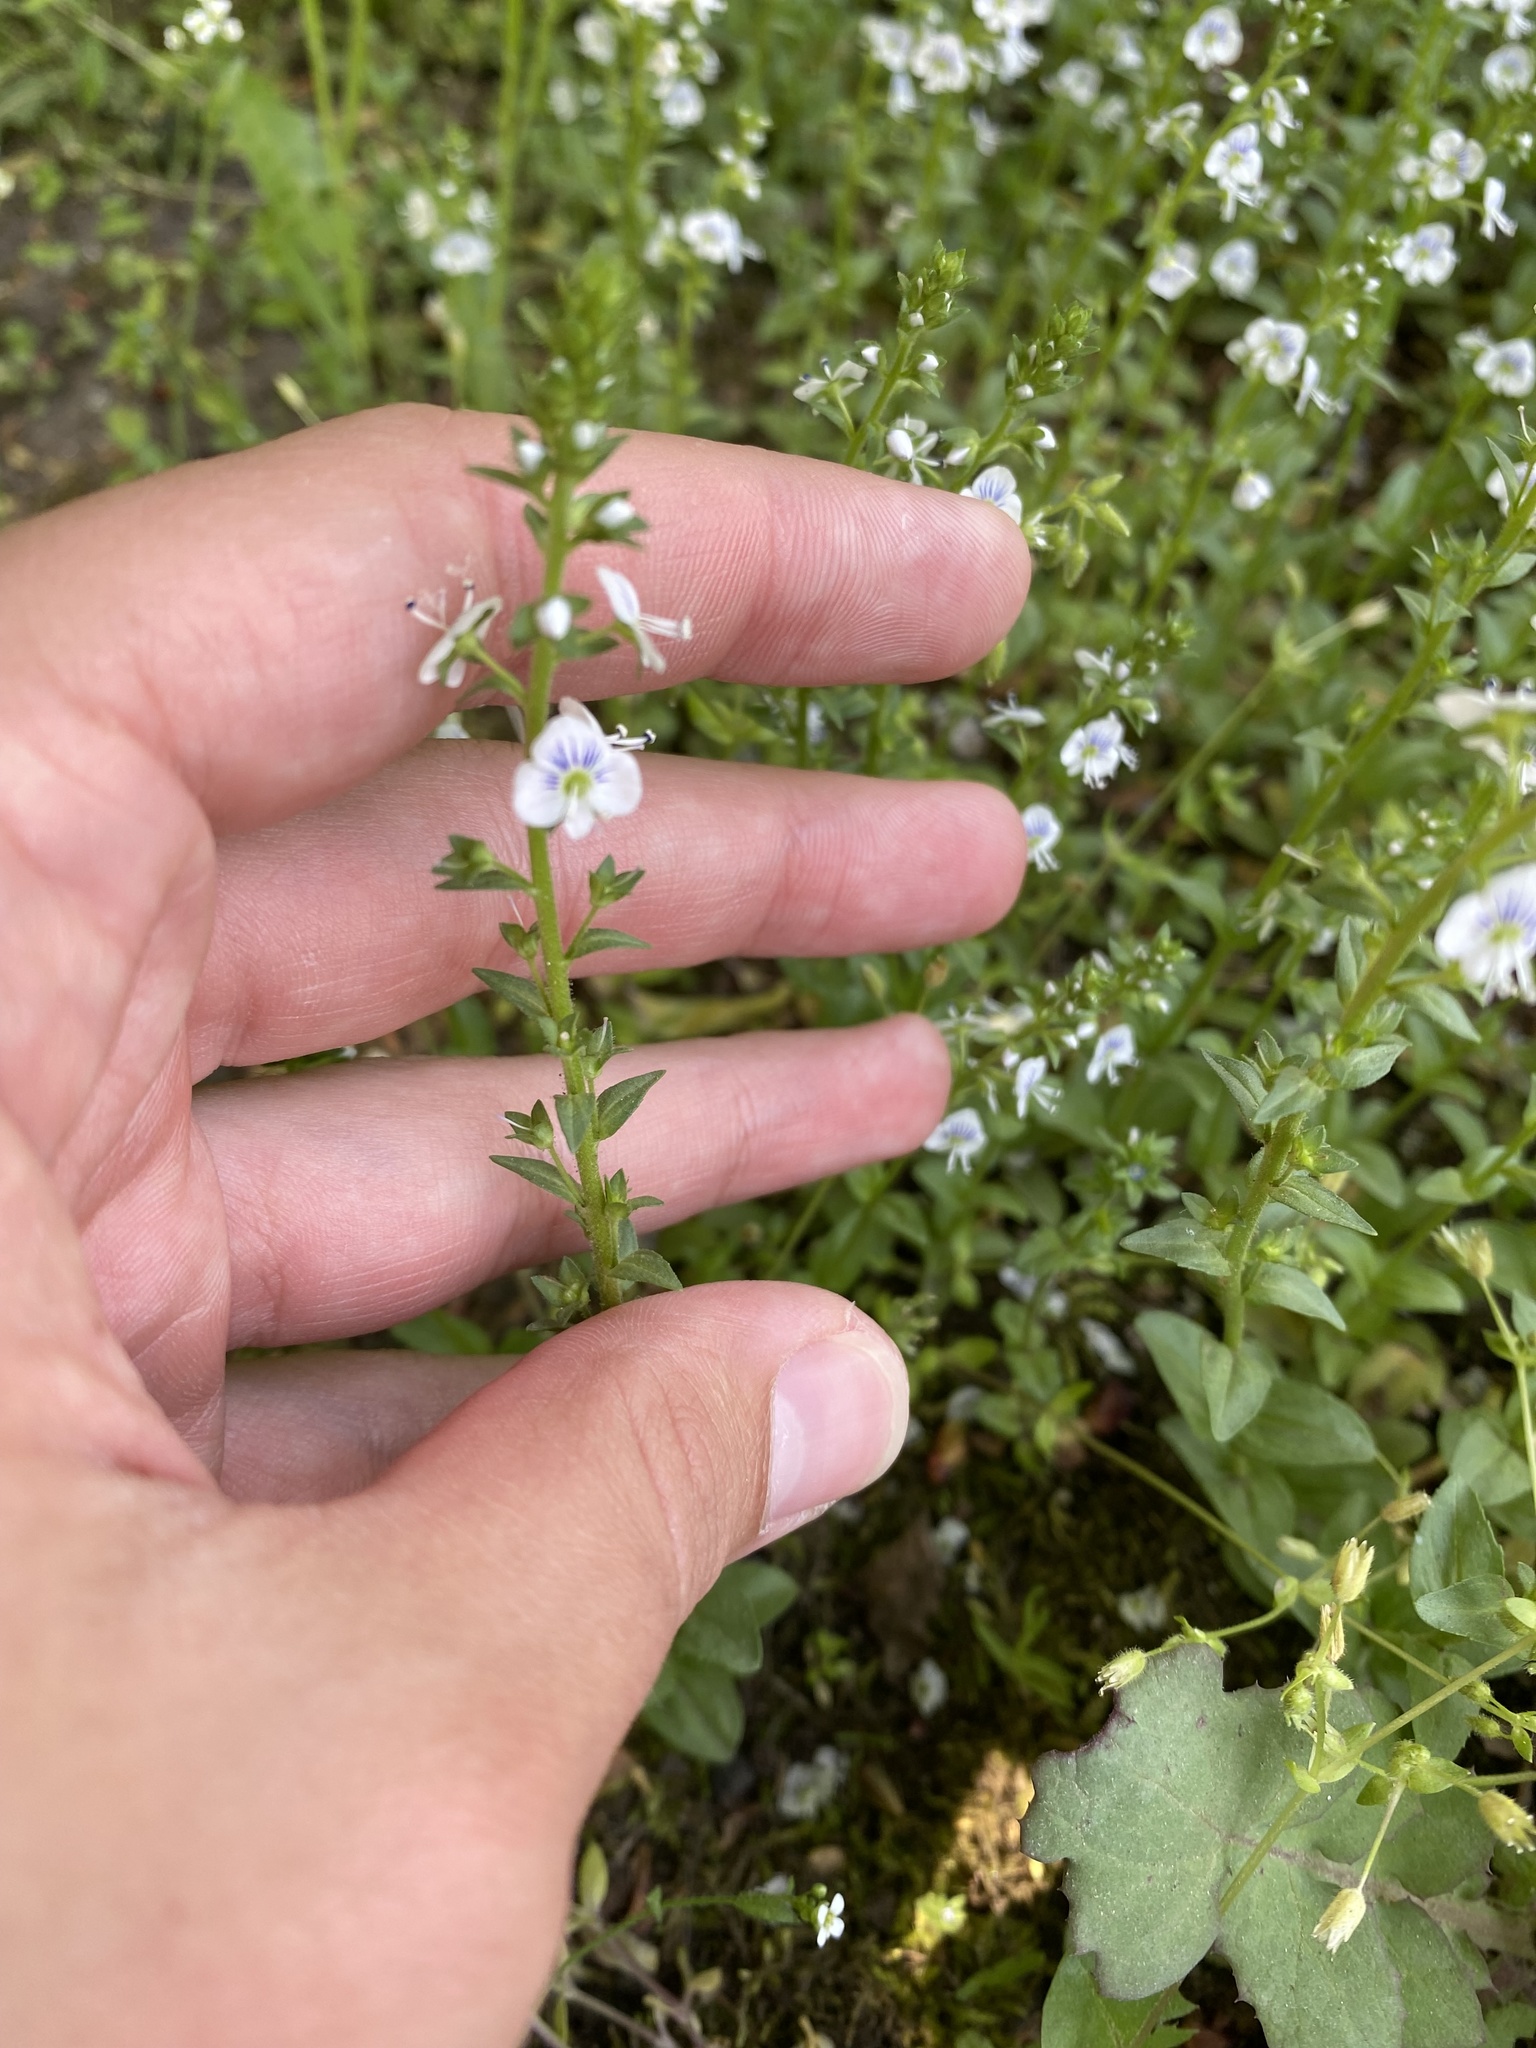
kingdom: Plantae
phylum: Tracheophyta
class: Magnoliopsida
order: Lamiales
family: Plantaginaceae
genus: Veronica
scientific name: Veronica serpyllifolia
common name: Thyme-leaved speedwell
